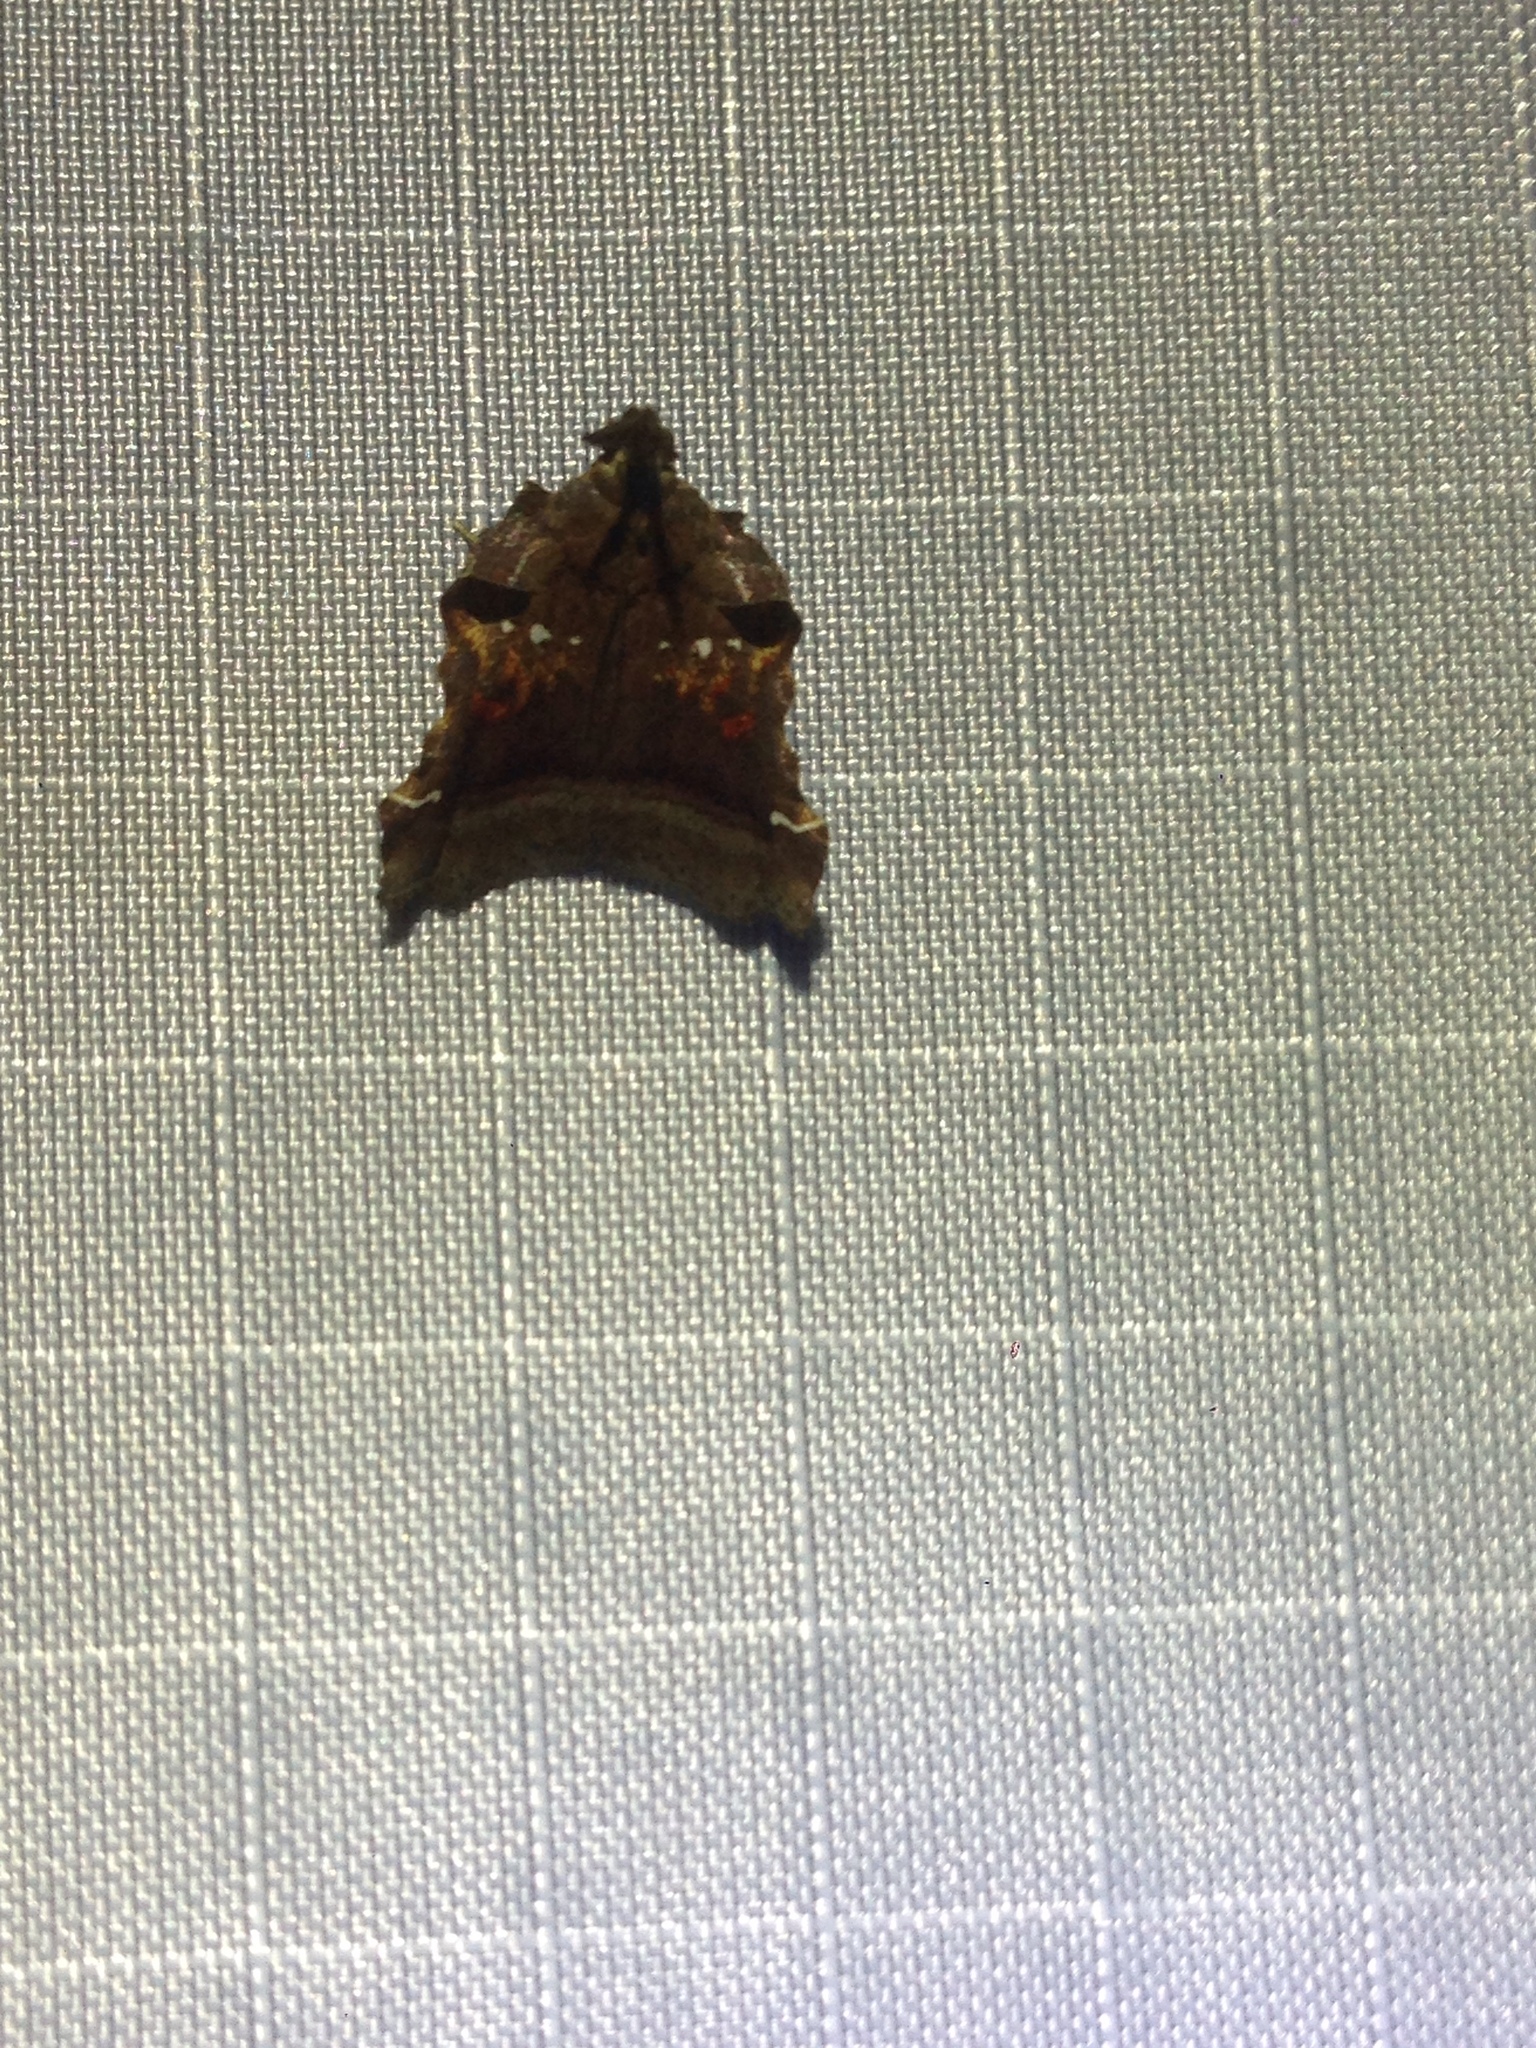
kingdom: Animalia
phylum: Arthropoda
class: Insecta
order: Lepidoptera
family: Pyralidae
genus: Clydonopteron
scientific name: Clydonopteron sacculana
